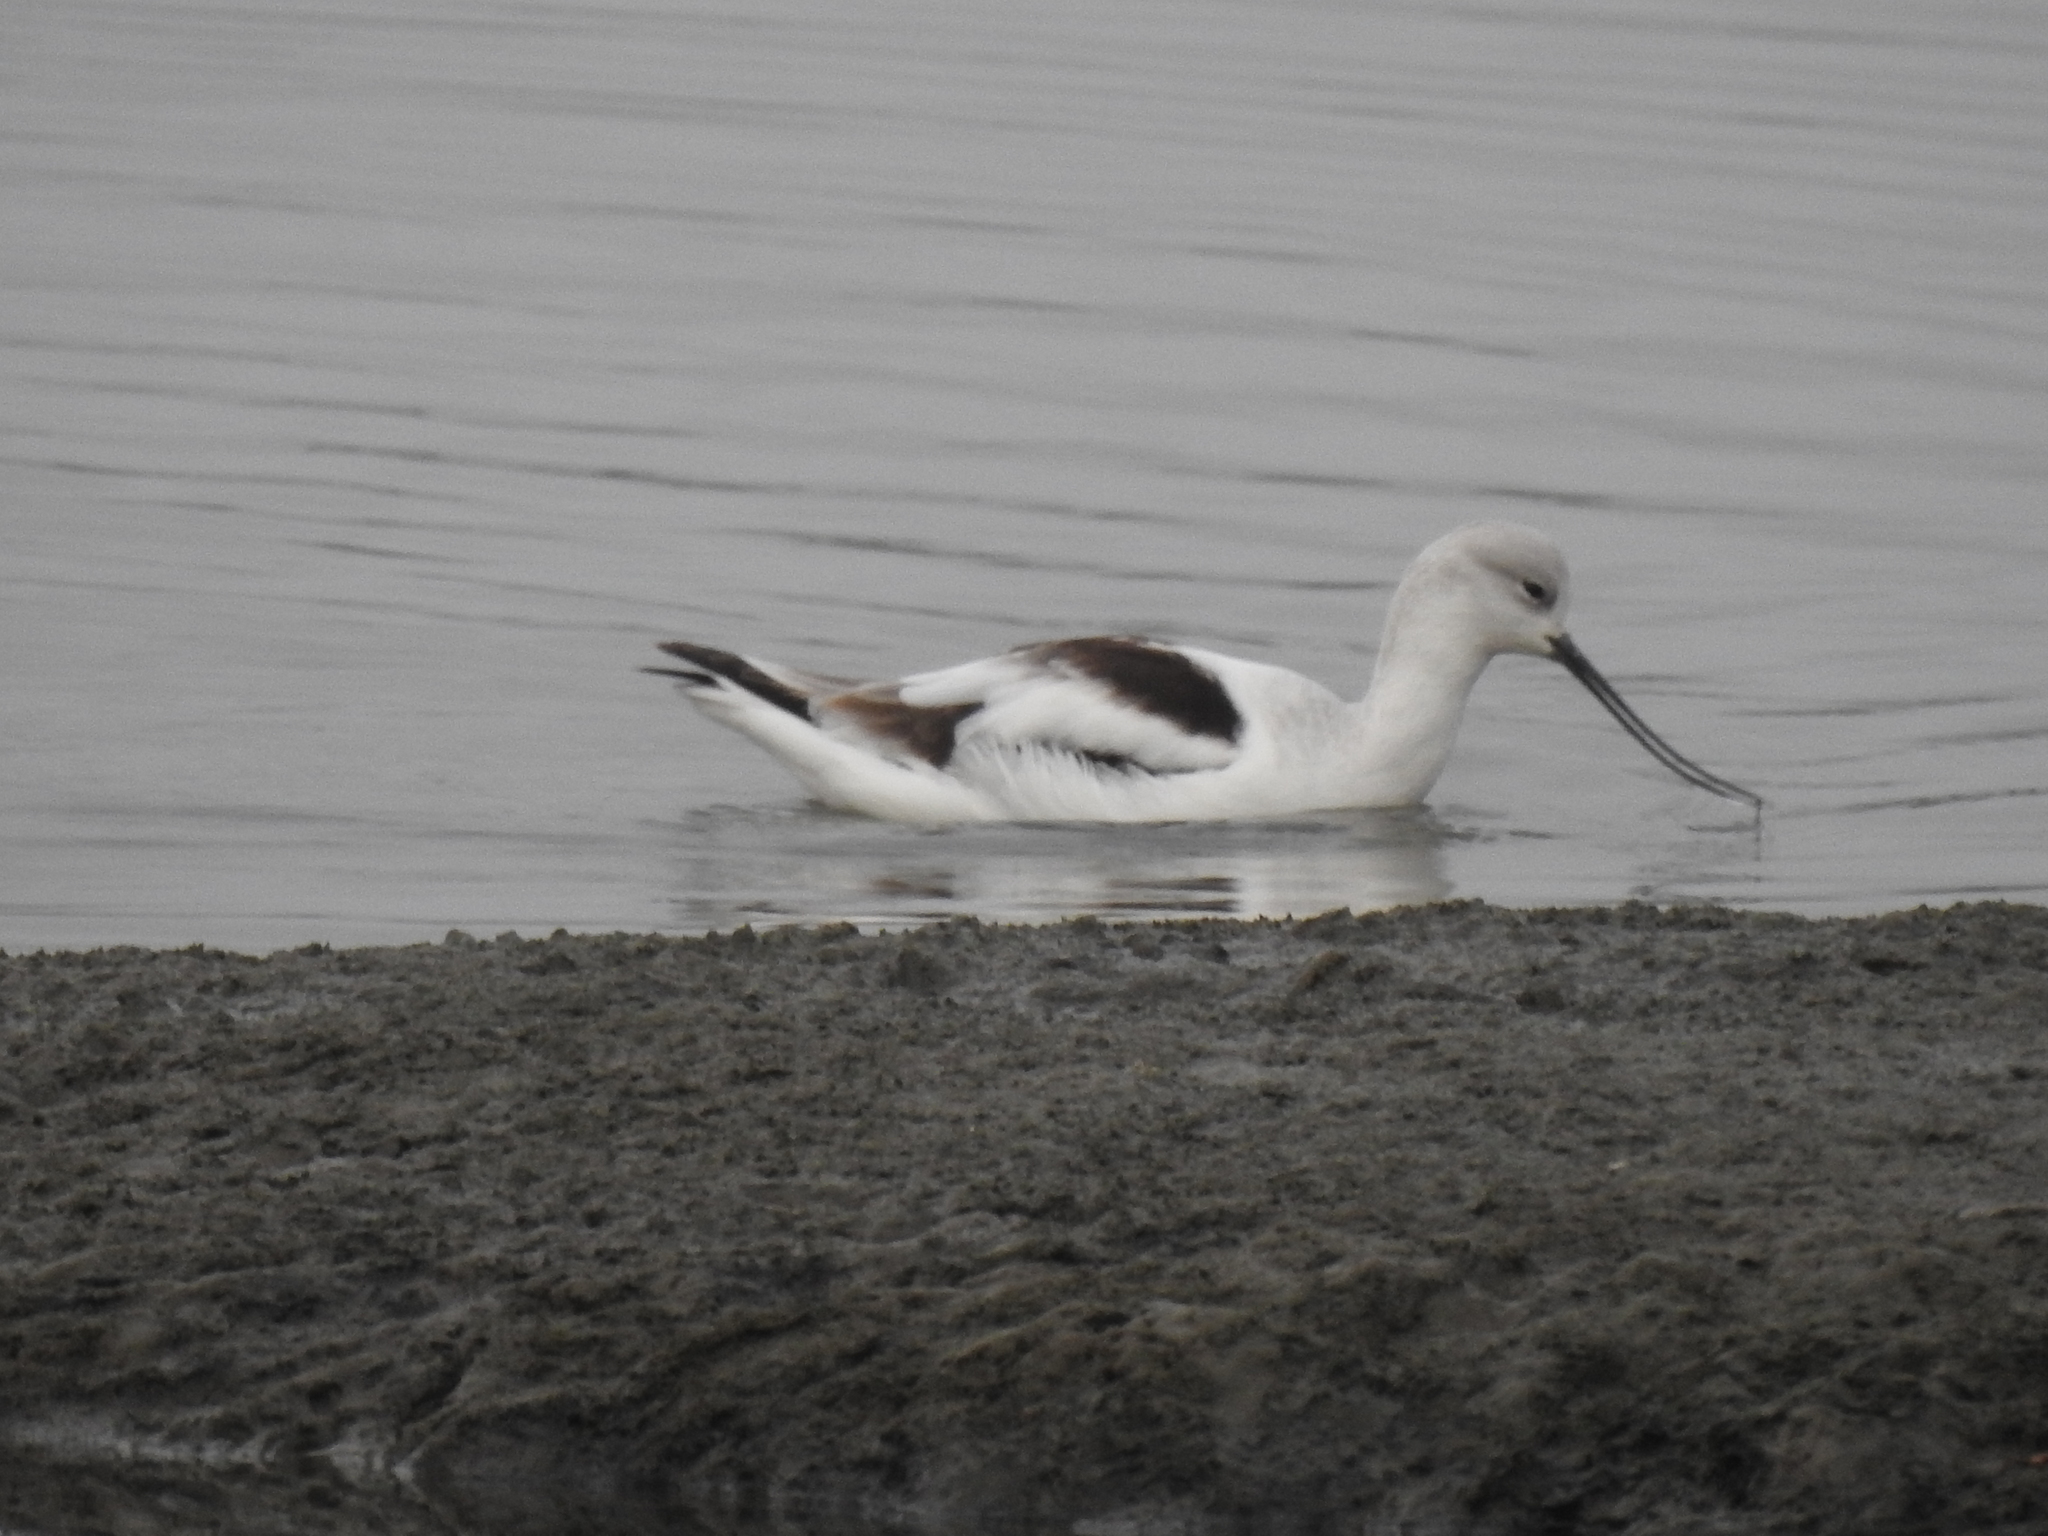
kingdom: Animalia
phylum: Chordata
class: Aves
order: Charadriiformes
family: Recurvirostridae
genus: Recurvirostra
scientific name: Recurvirostra americana
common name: American avocet
